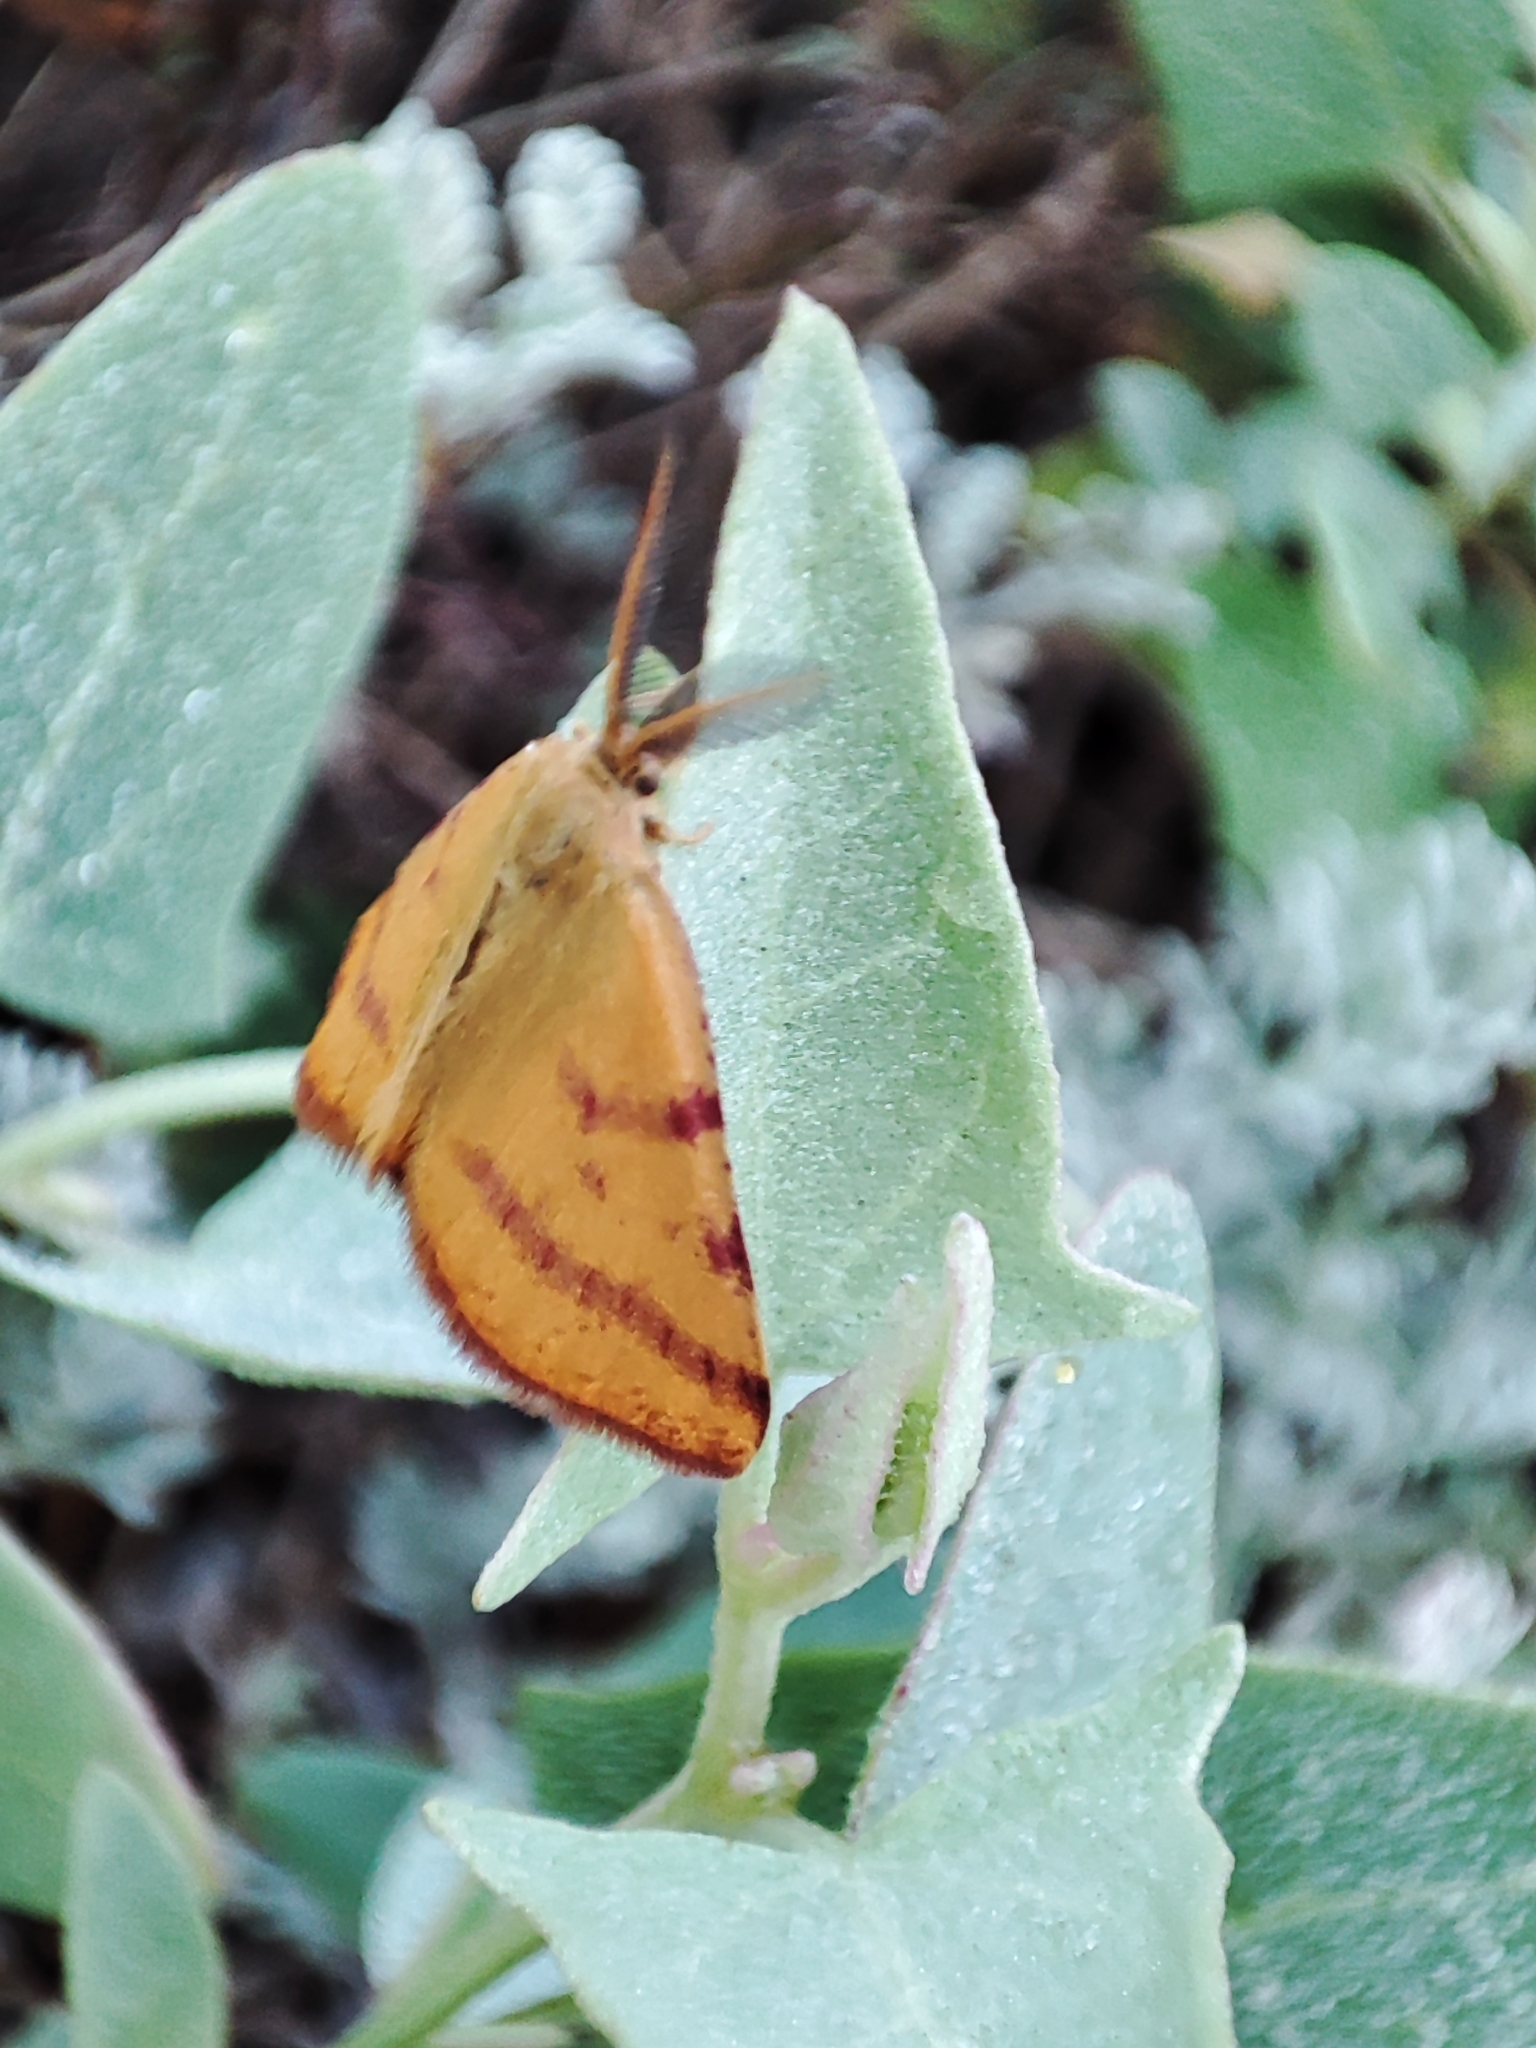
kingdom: Animalia
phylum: Arthropoda
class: Insecta
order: Lepidoptera
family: Geometridae
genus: Lythria
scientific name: Lythria purpuraria
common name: Purple-barred yellow
